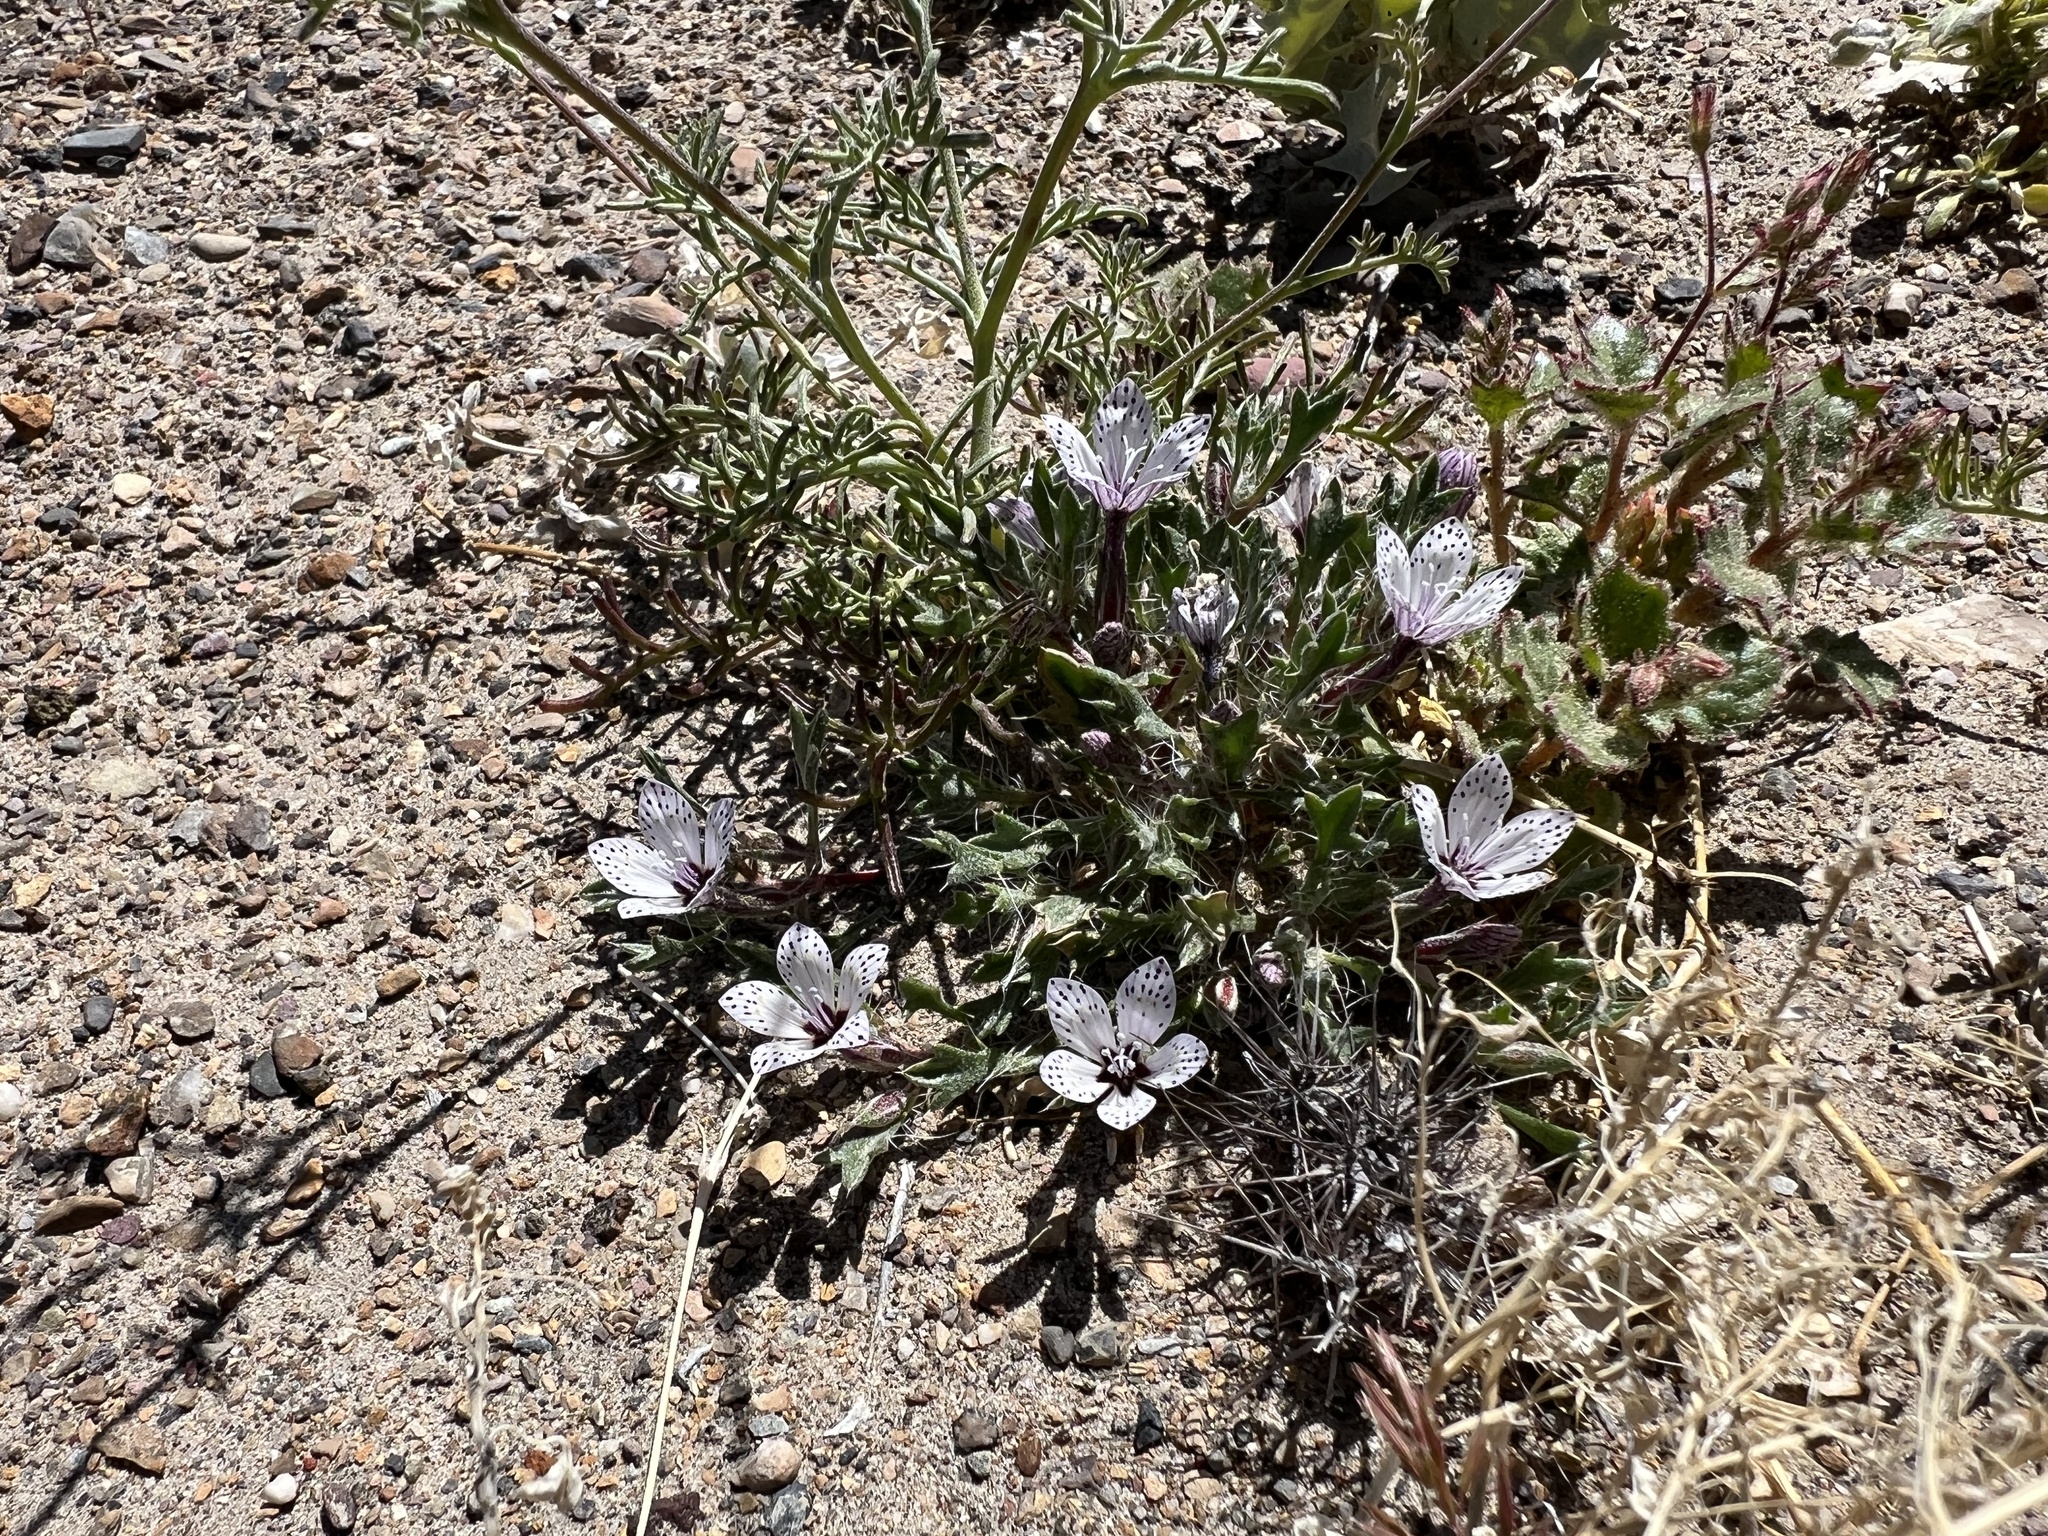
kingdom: Plantae
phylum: Tracheophyta
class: Magnoliopsida
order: Ericales
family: Polemoniaceae
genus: Langloisia
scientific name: Langloisia setosissima
